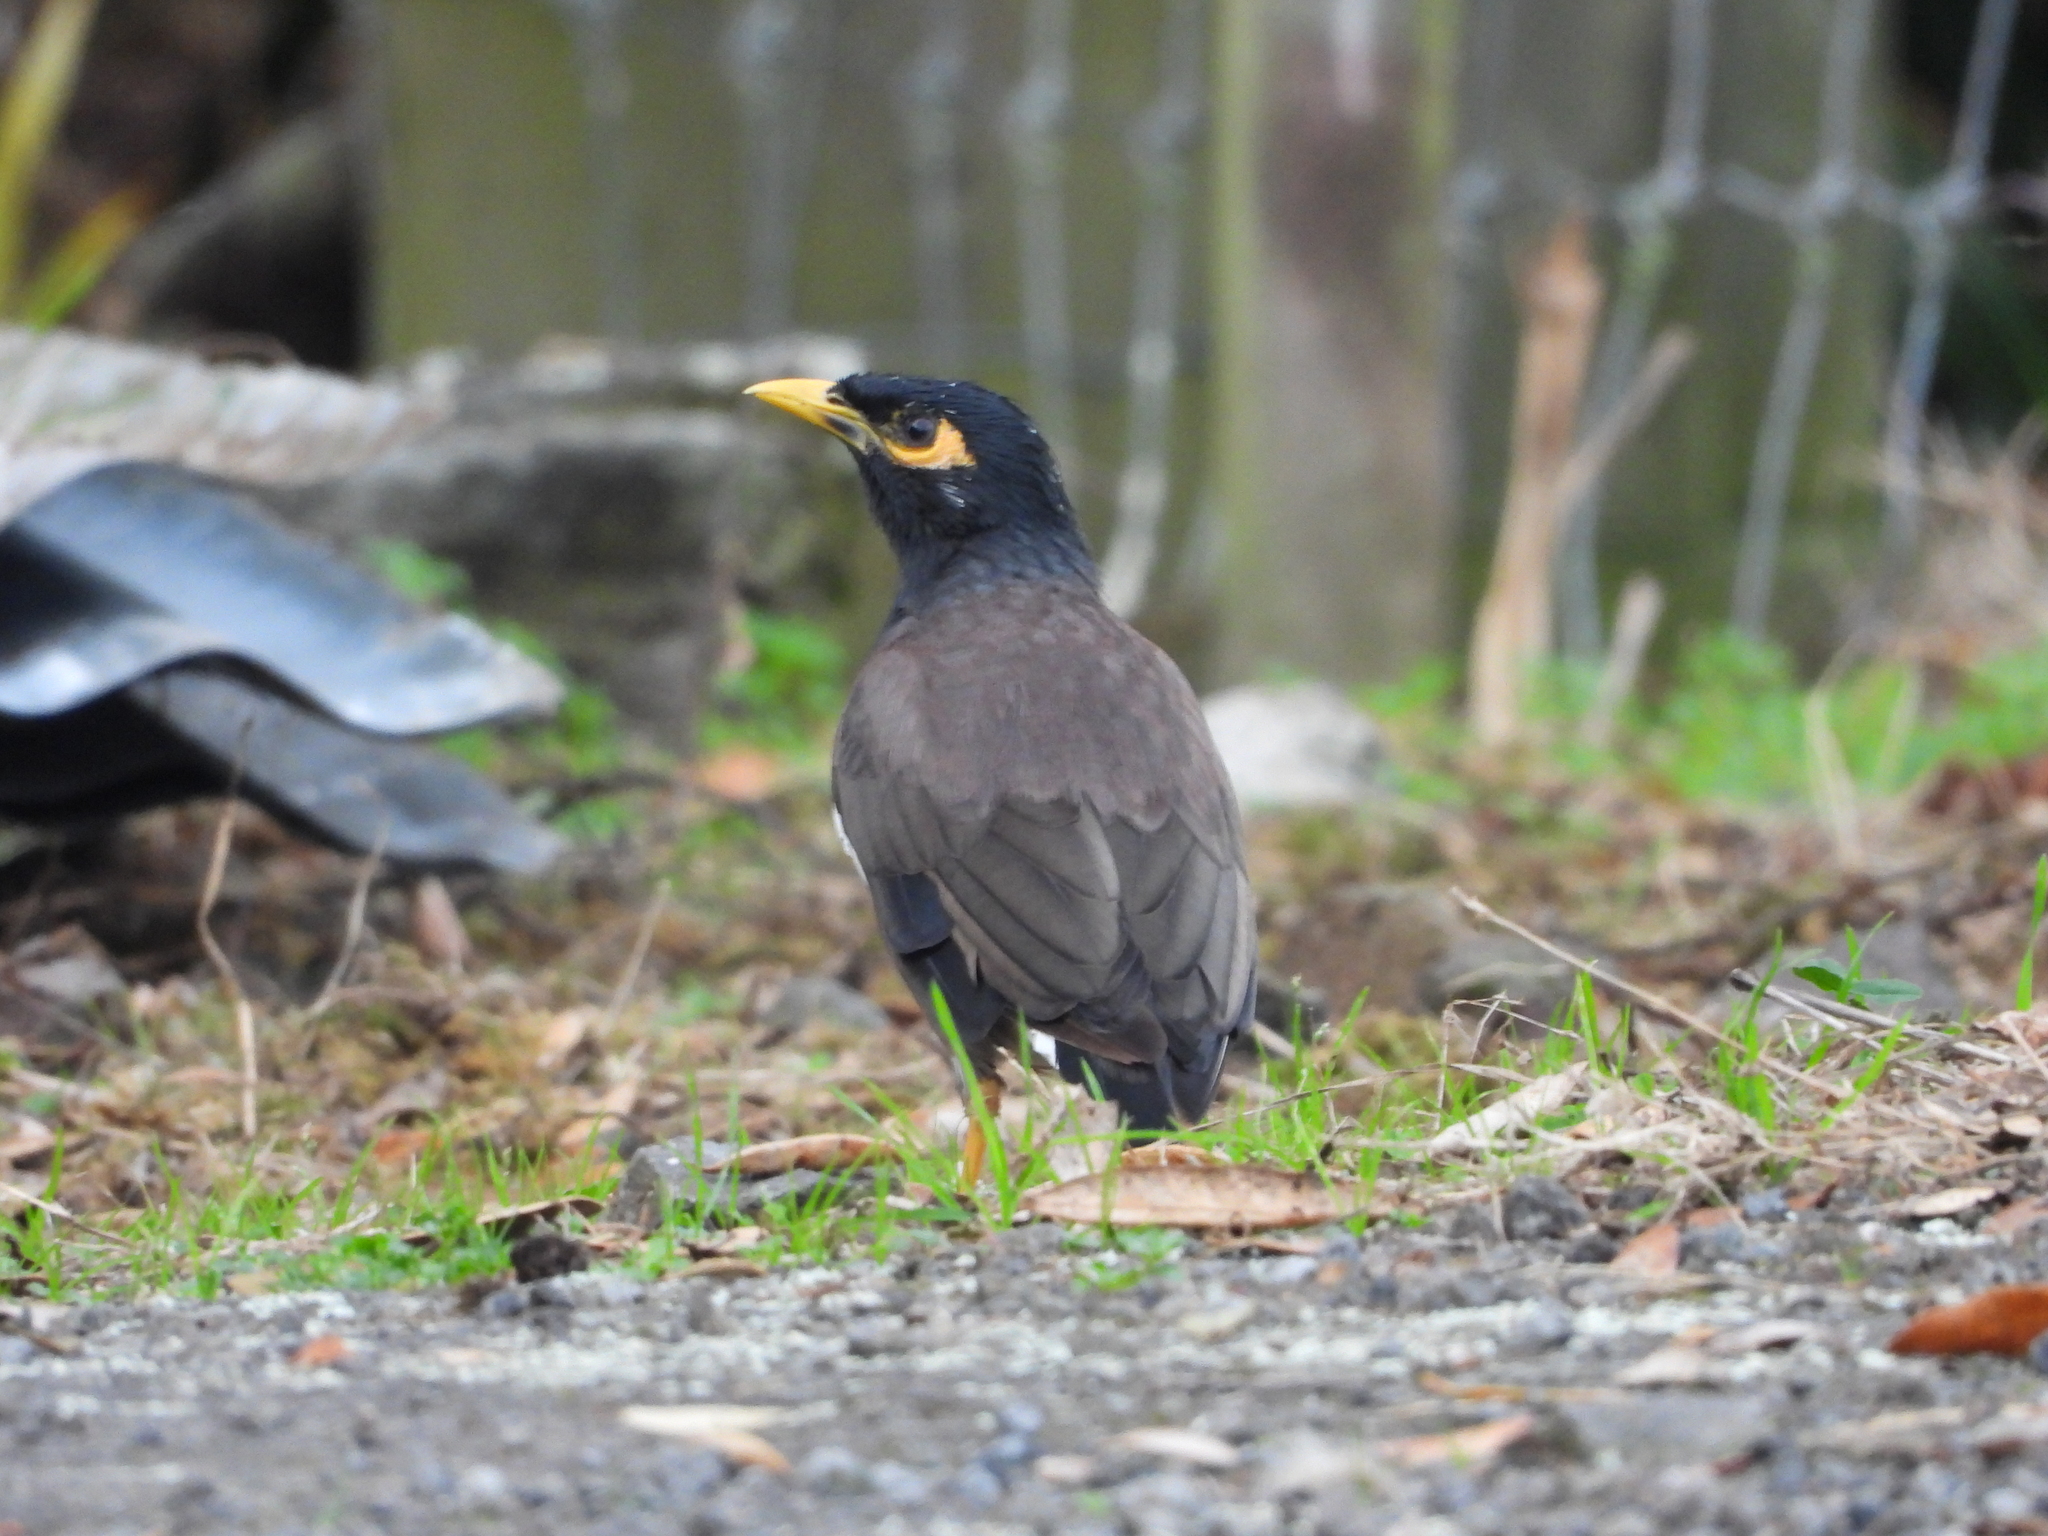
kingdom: Animalia
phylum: Chordata
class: Aves
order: Passeriformes
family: Sturnidae
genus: Acridotheres
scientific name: Acridotheres tristis
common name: Common myna
